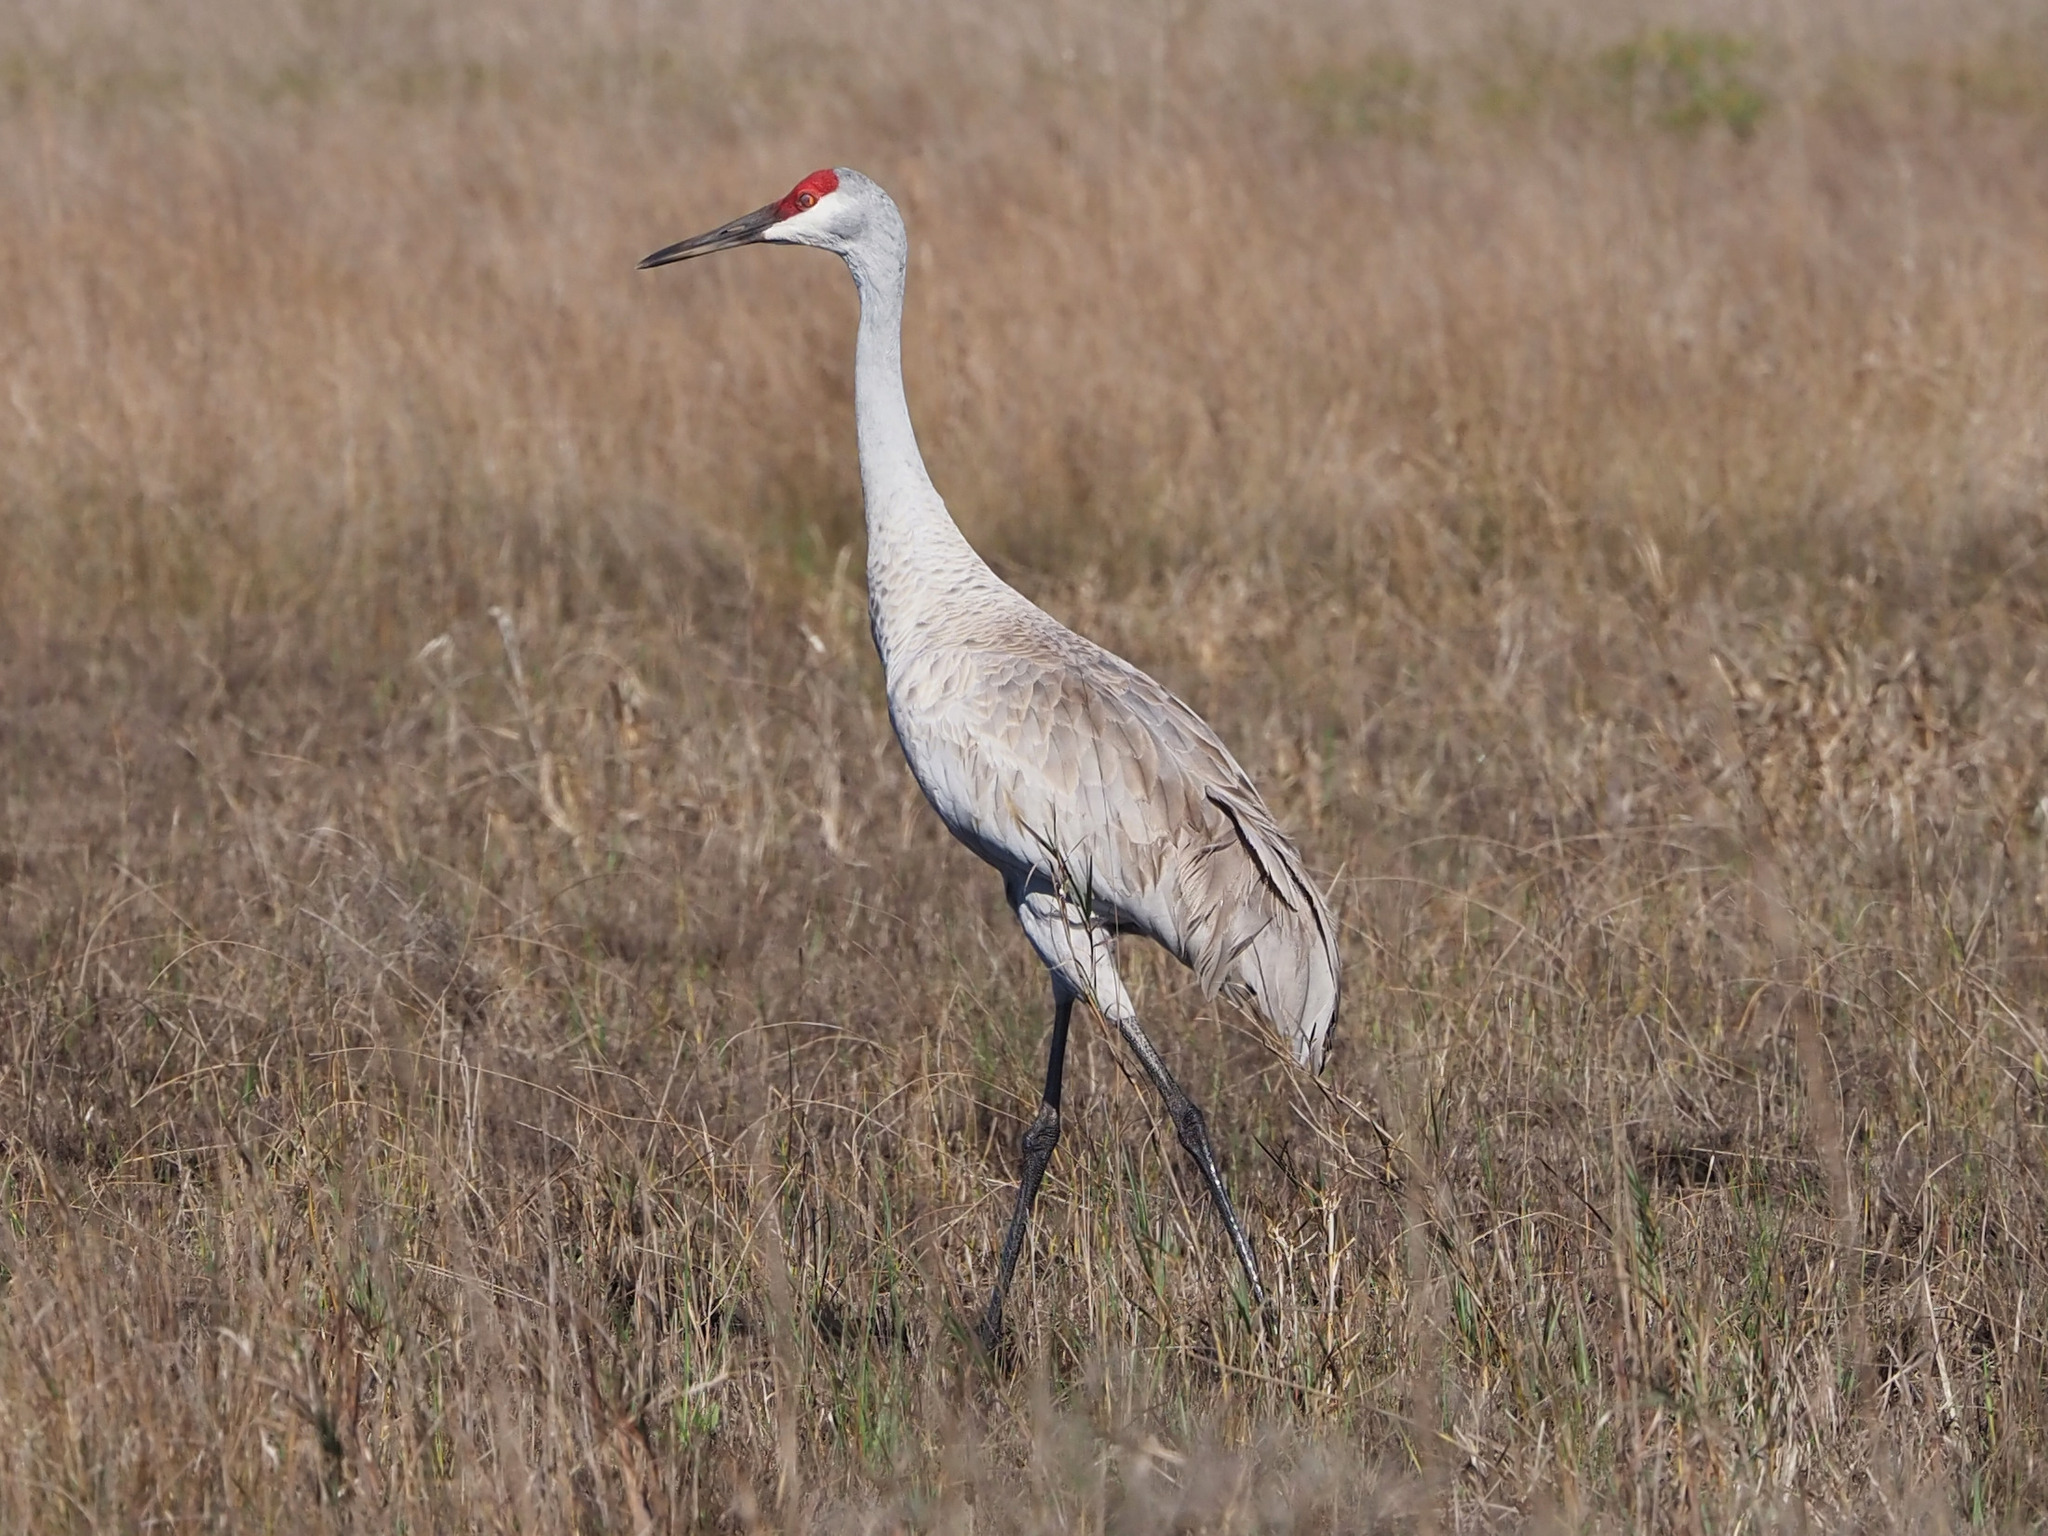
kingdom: Animalia
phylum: Chordata
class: Aves
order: Gruiformes
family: Gruidae
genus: Grus
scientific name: Grus canadensis
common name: Sandhill crane
